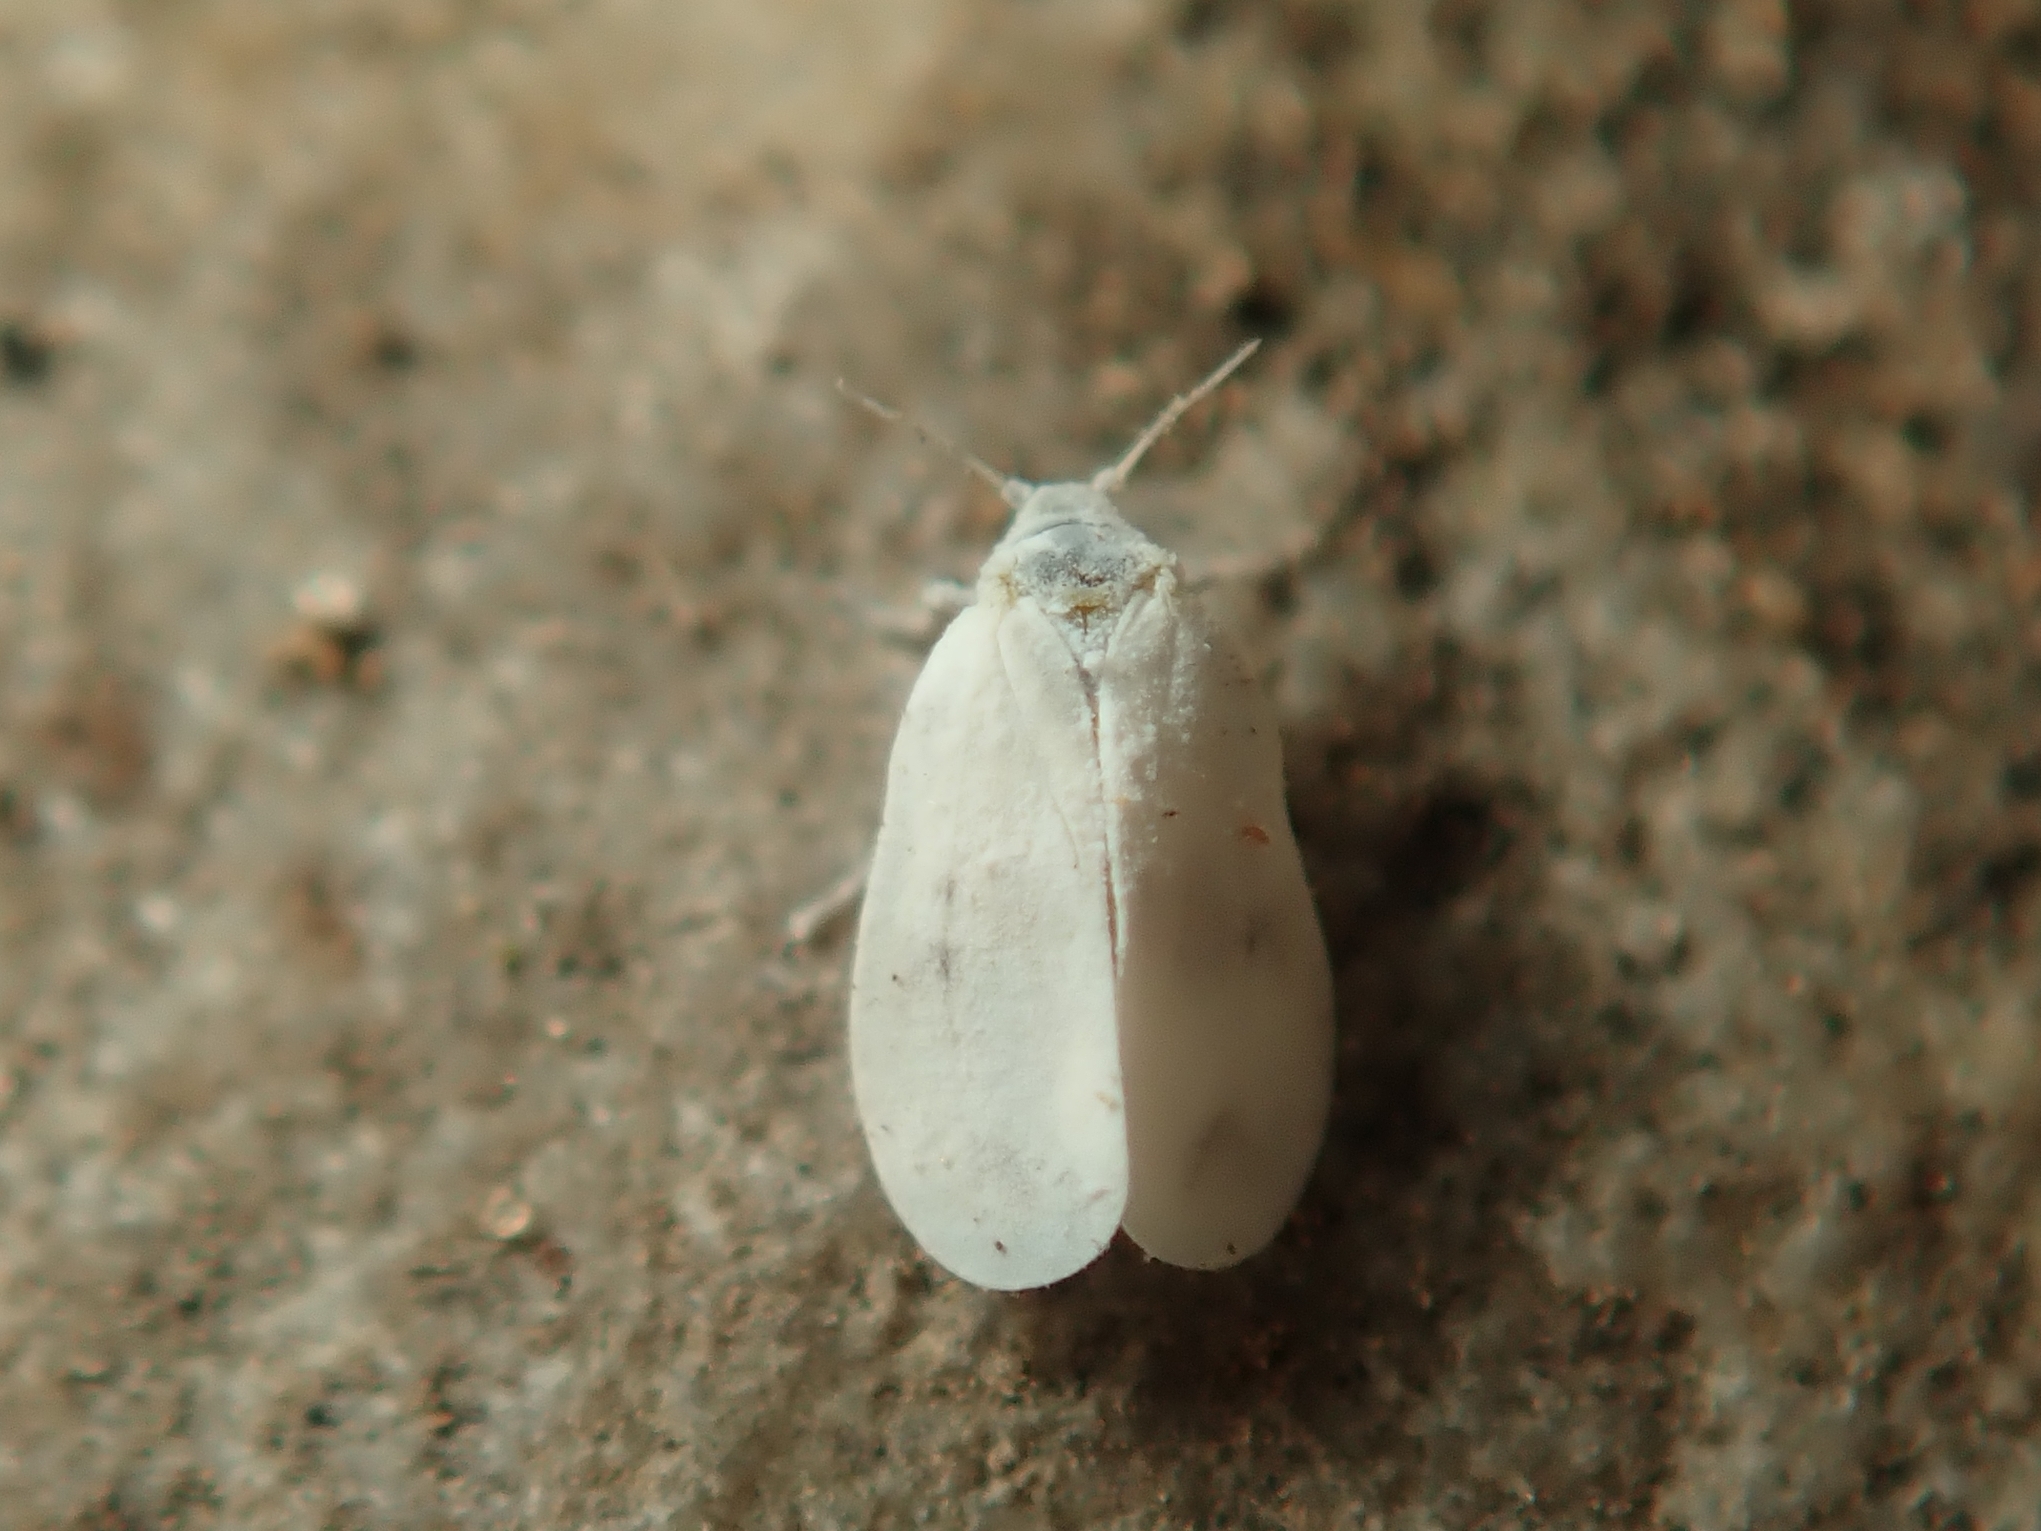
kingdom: Animalia
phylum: Arthropoda
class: Insecta
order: Hemiptera
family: Aleyrodidae
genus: Aleyrodes
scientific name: Aleyrodes proletella
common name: Cabbage whitefly
